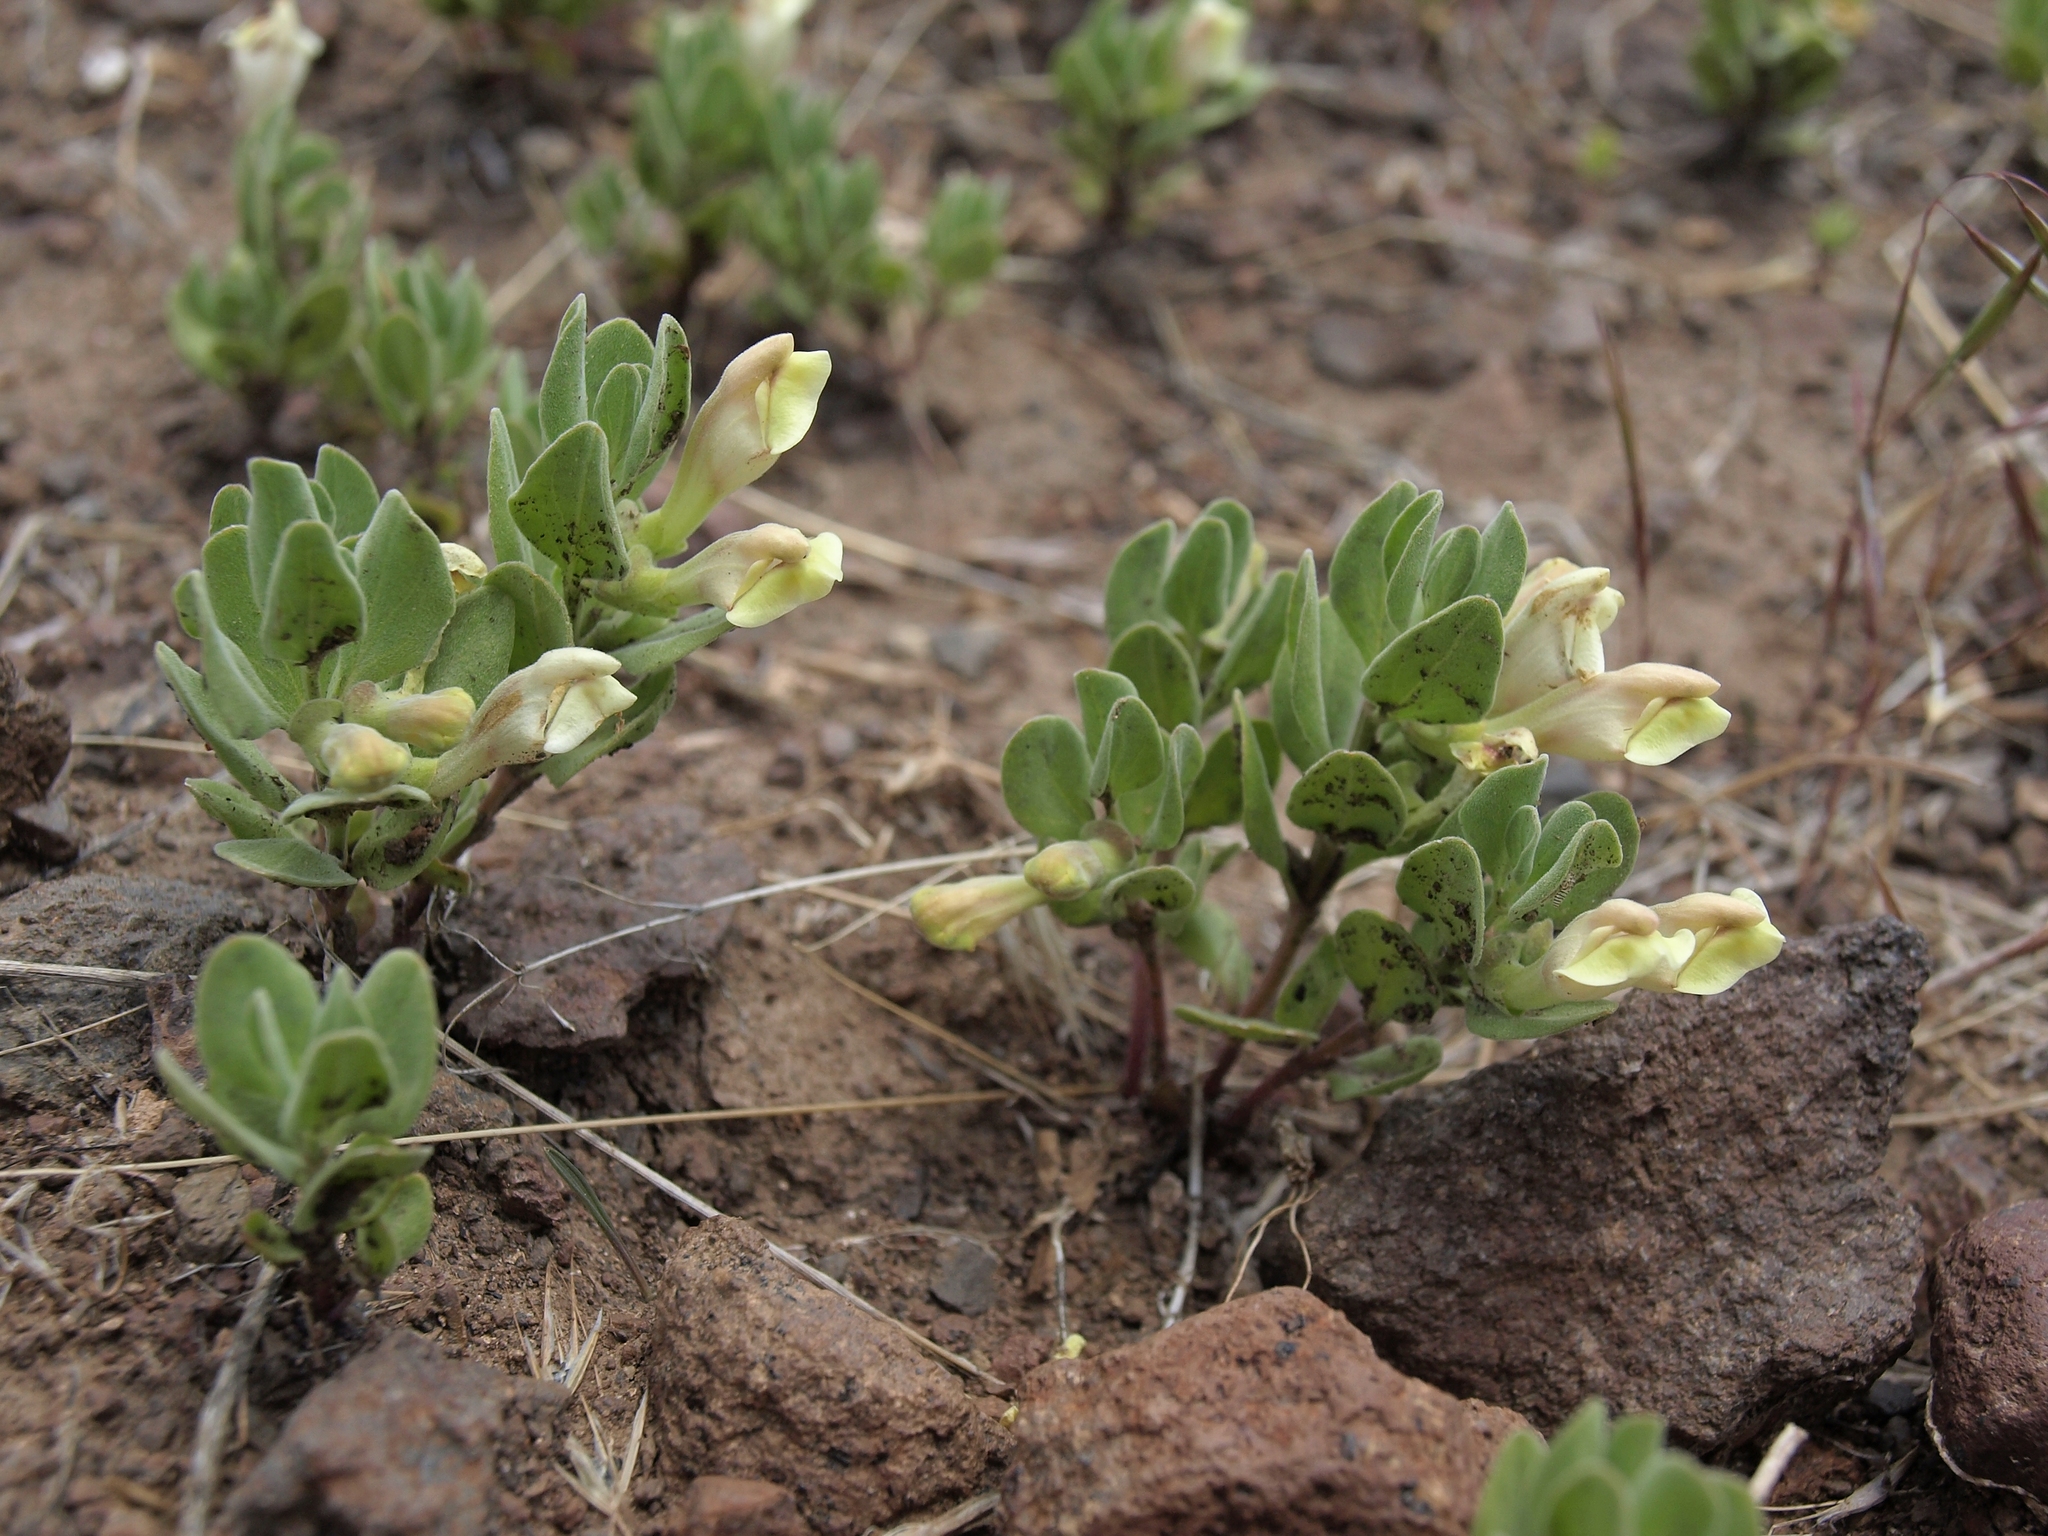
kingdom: Plantae
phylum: Tracheophyta
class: Magnoliopsida
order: Lamiales
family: Lamiaceae
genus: Scutellaria
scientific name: Scutellaria nana
